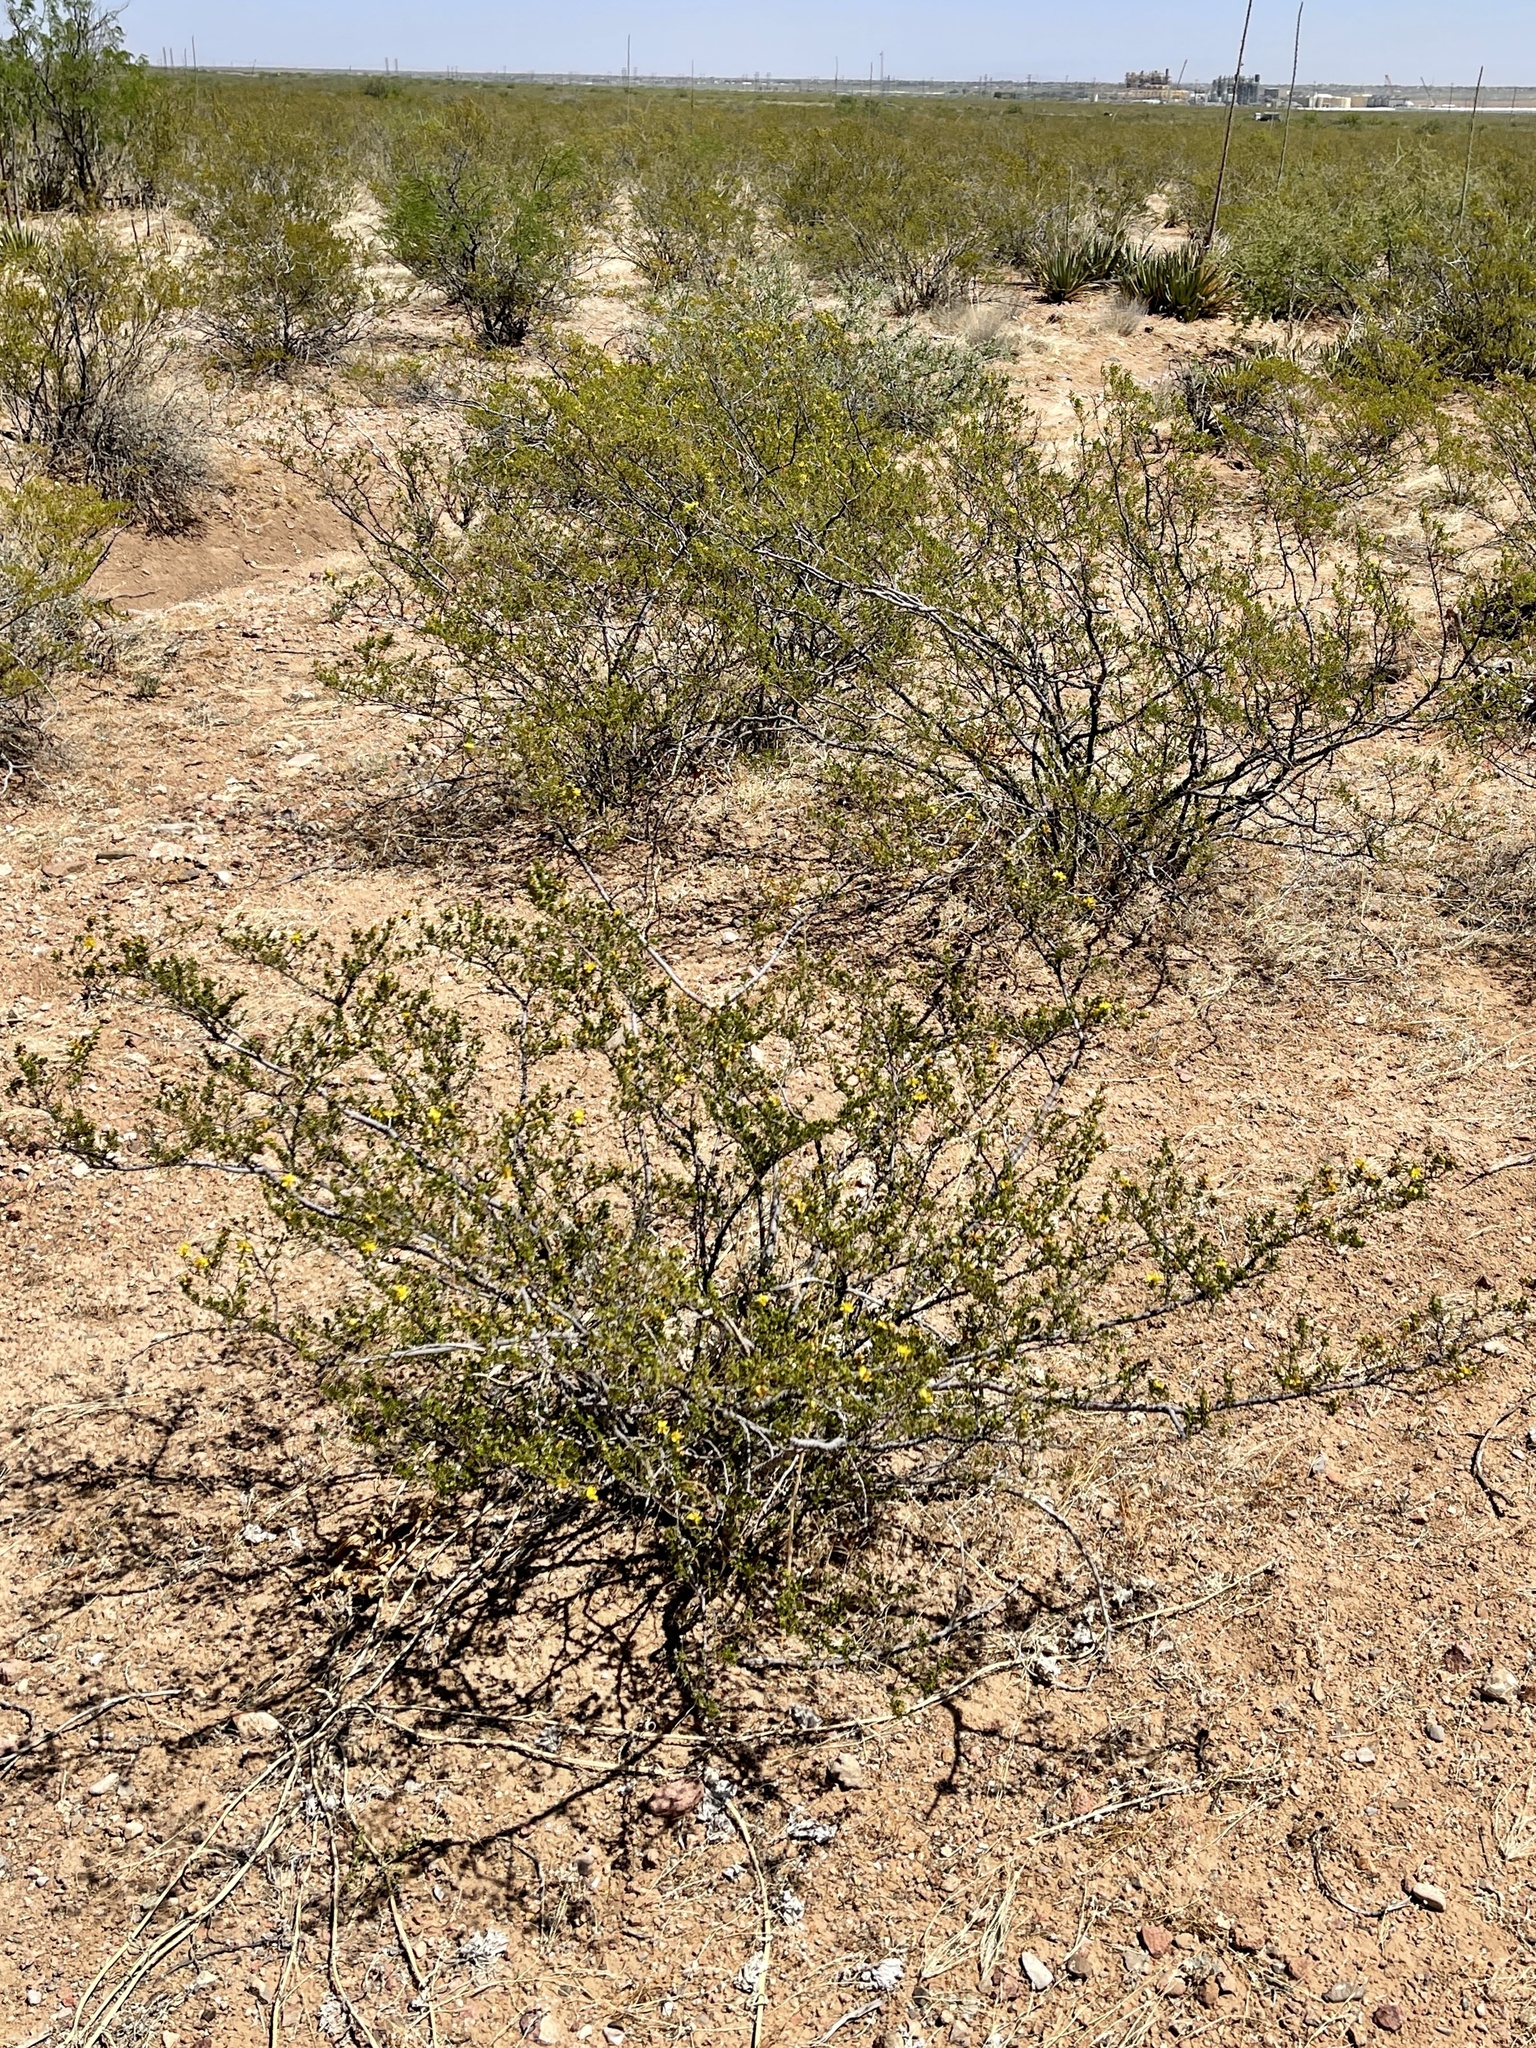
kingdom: Plantae
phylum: Tracheophyta
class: Magnoliopsida
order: Zygophyllales
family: Zygophyllaceae
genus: Larrea
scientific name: Larrea tridentata
